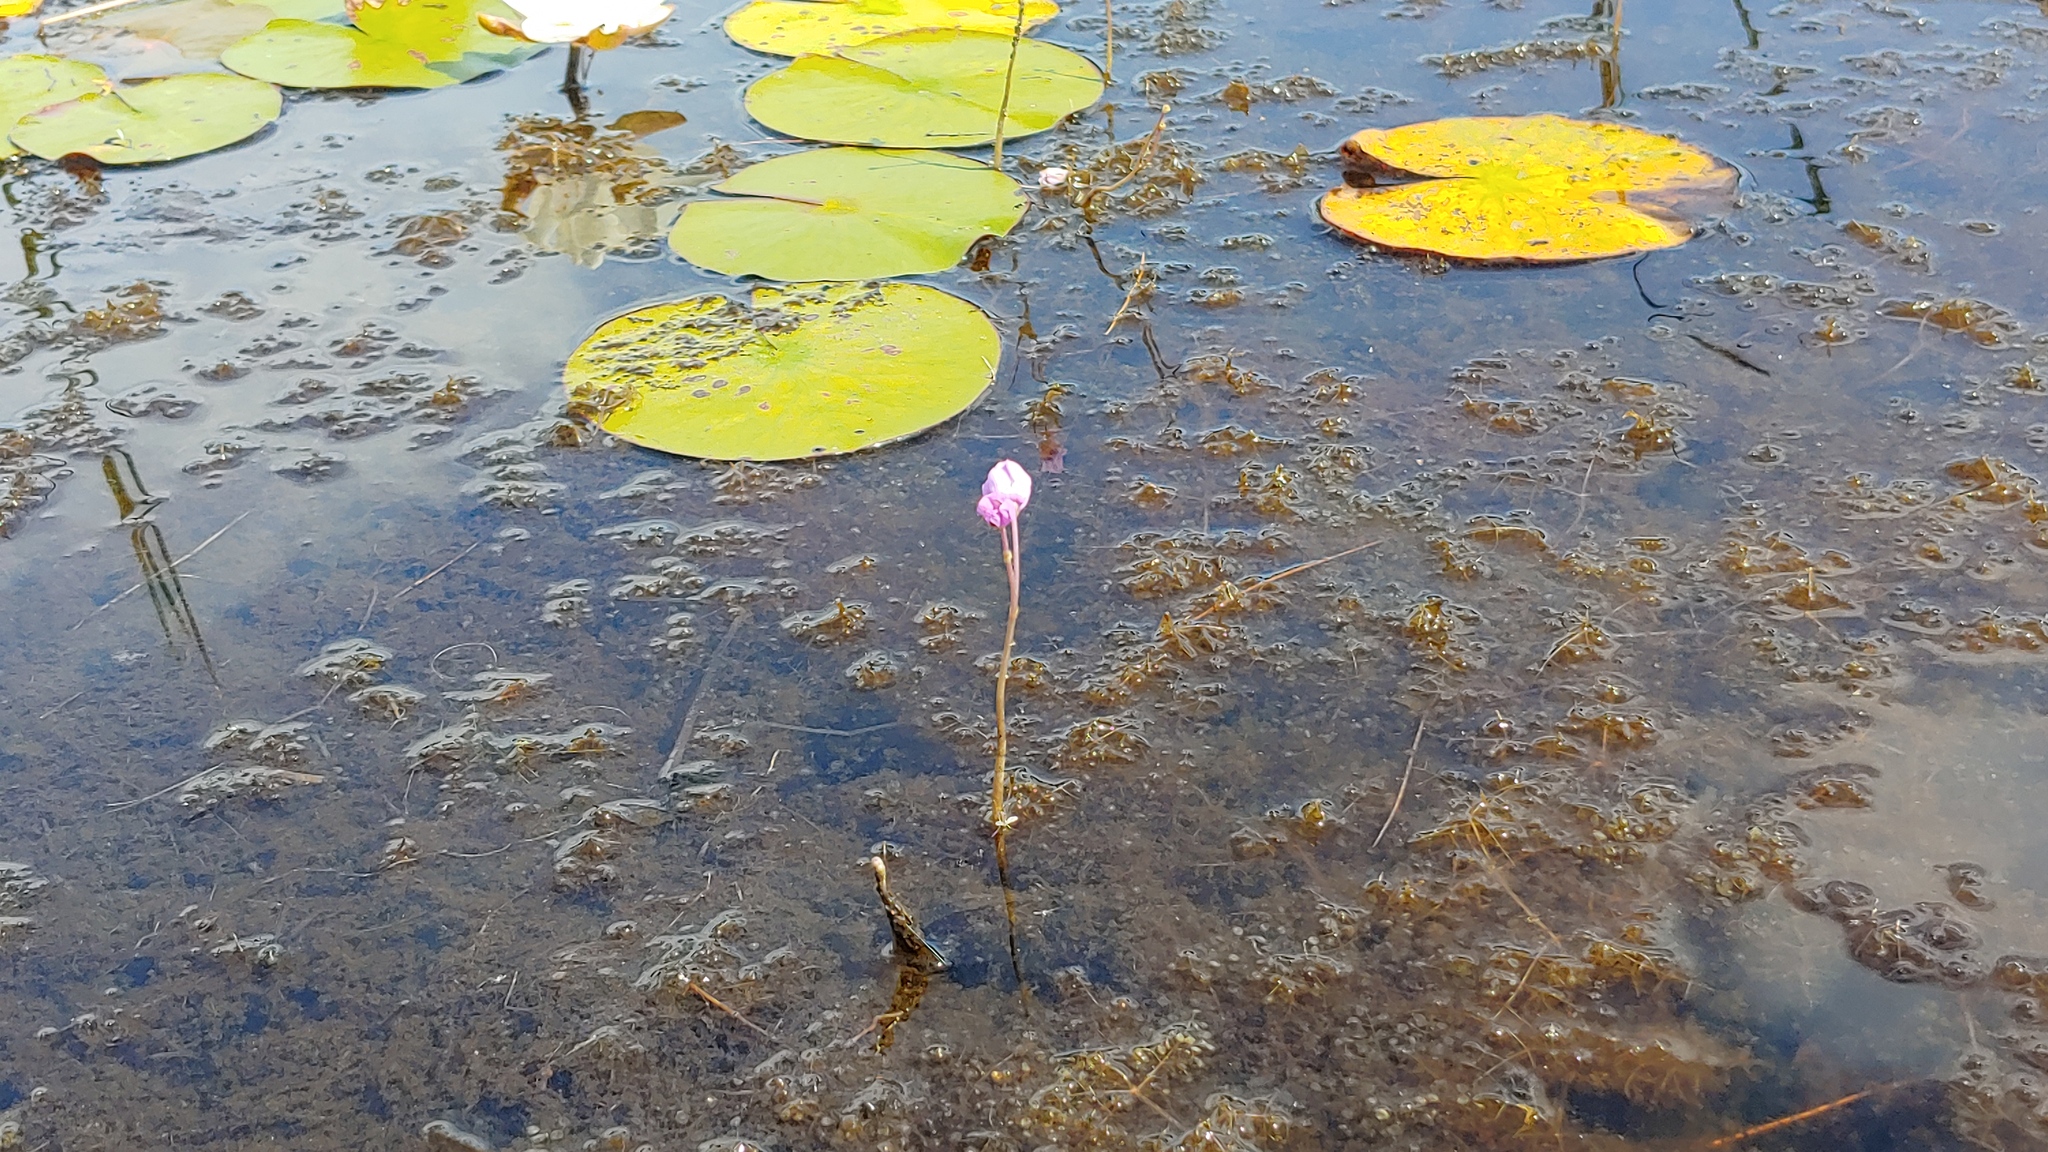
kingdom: Plantae
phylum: Tracheophyta
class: Magnoliopsida
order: Lamiales
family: Lentibulariaceae
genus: Utricularia
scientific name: Utricularia purpurea
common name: Eastern purple bladderwort
